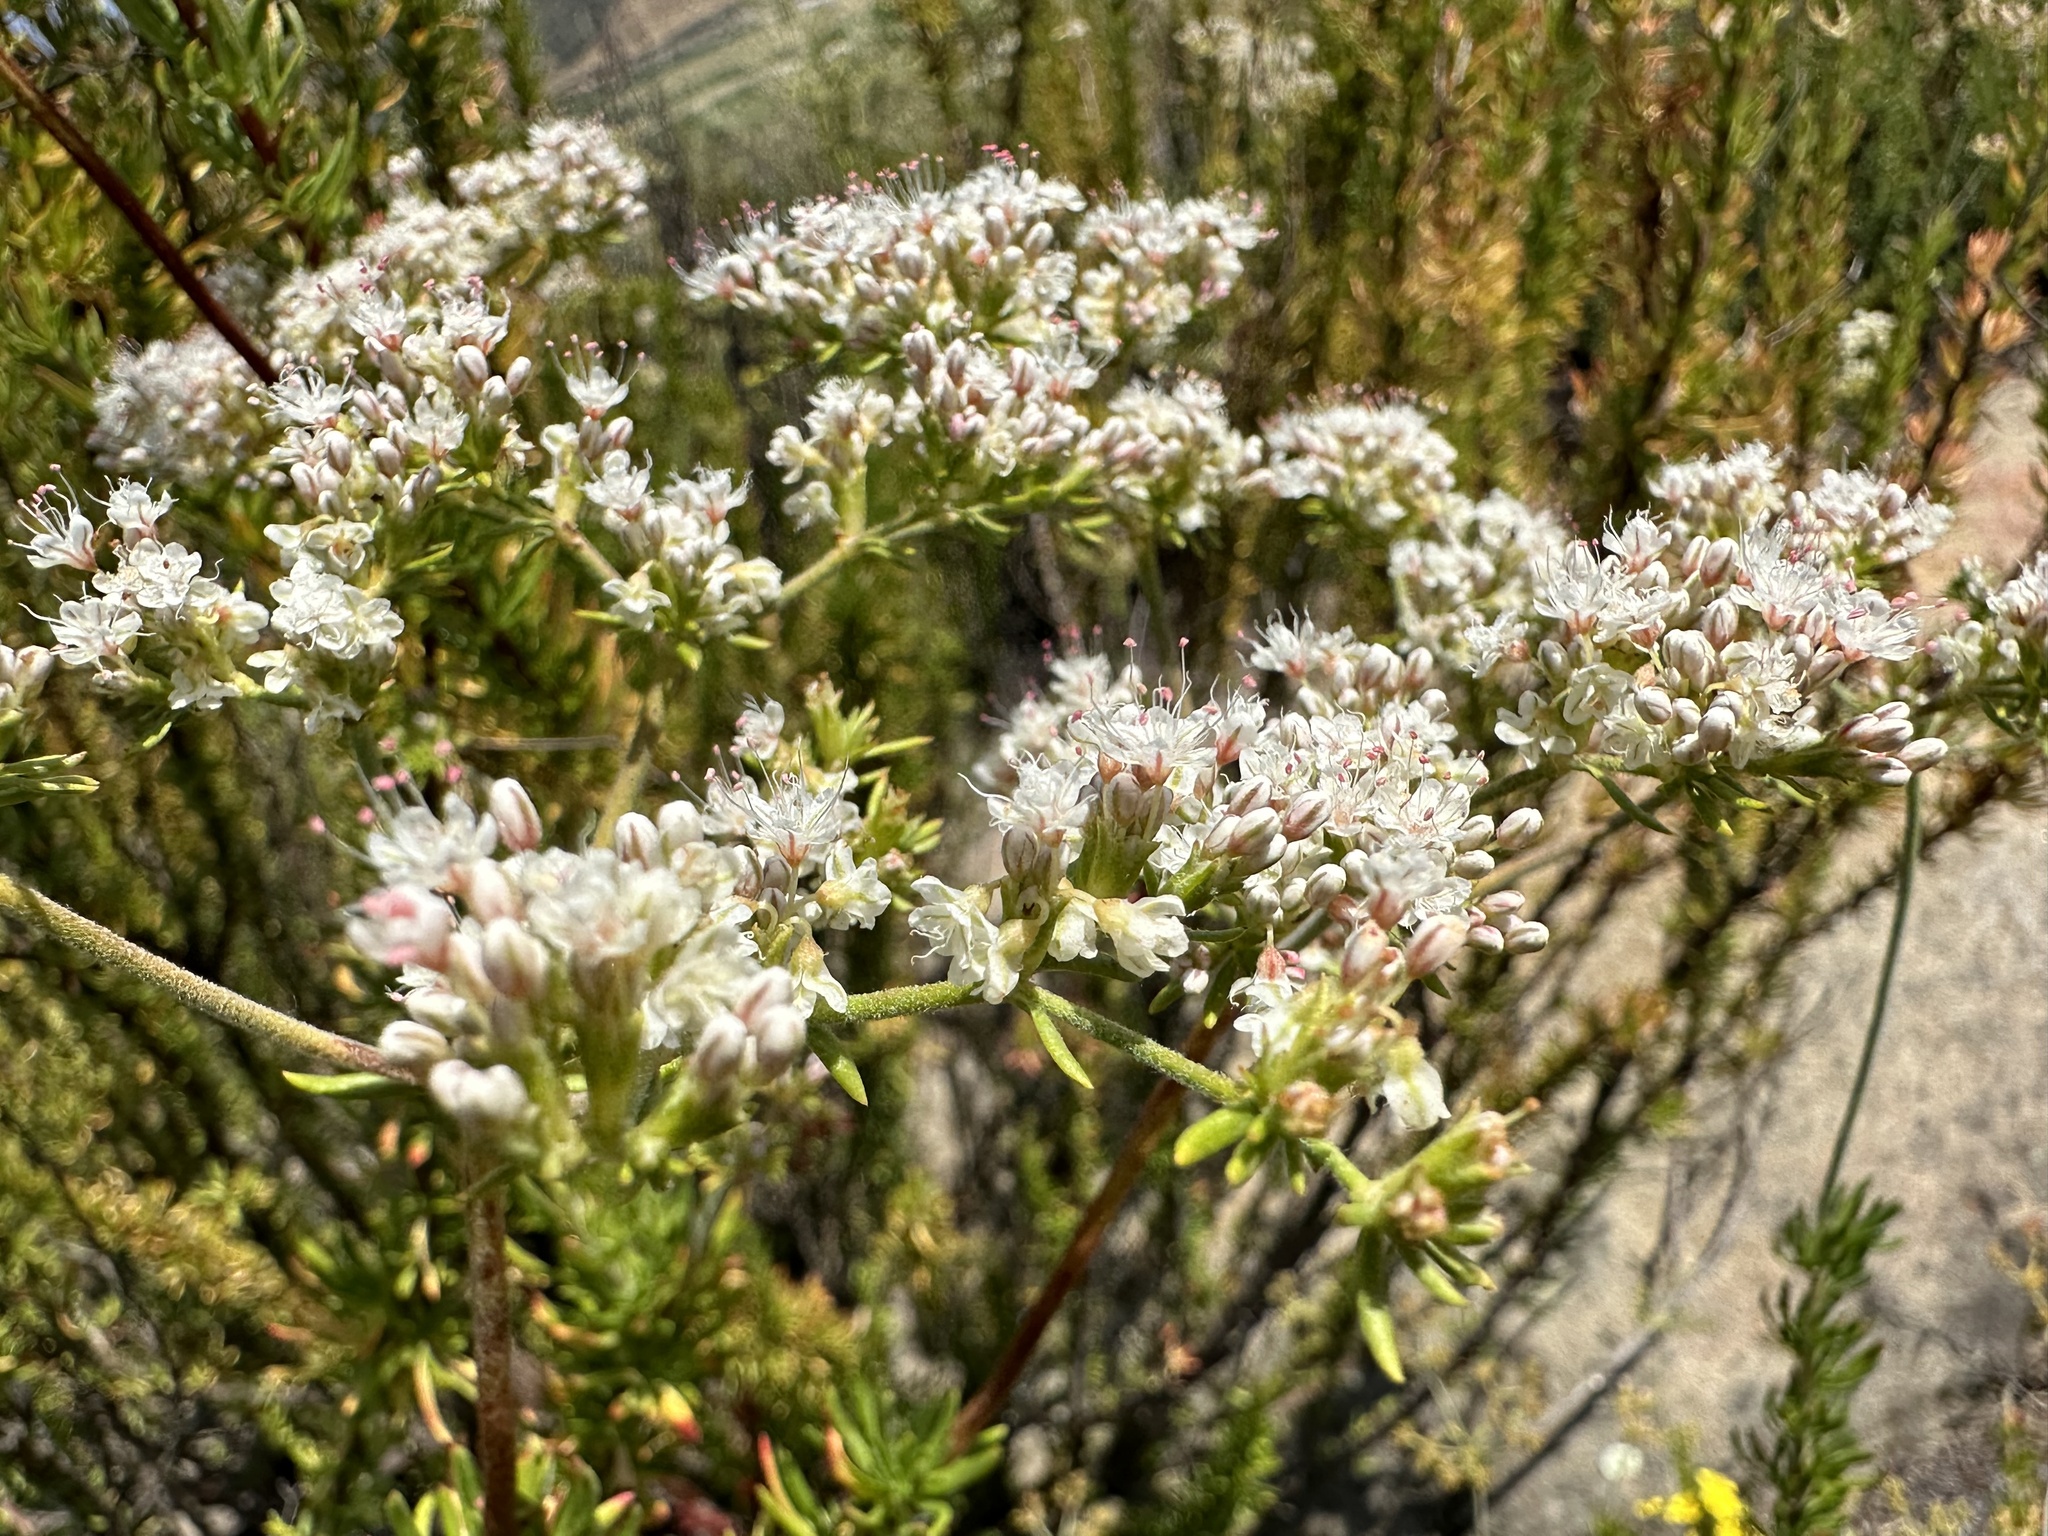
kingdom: Plantae
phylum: Tracheophyta
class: Magnoliopsida
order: Caryophyllales
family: Polygonaceae
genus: Eriogonum
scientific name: Eriogonum fasciculatum
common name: California wild buckwheat
